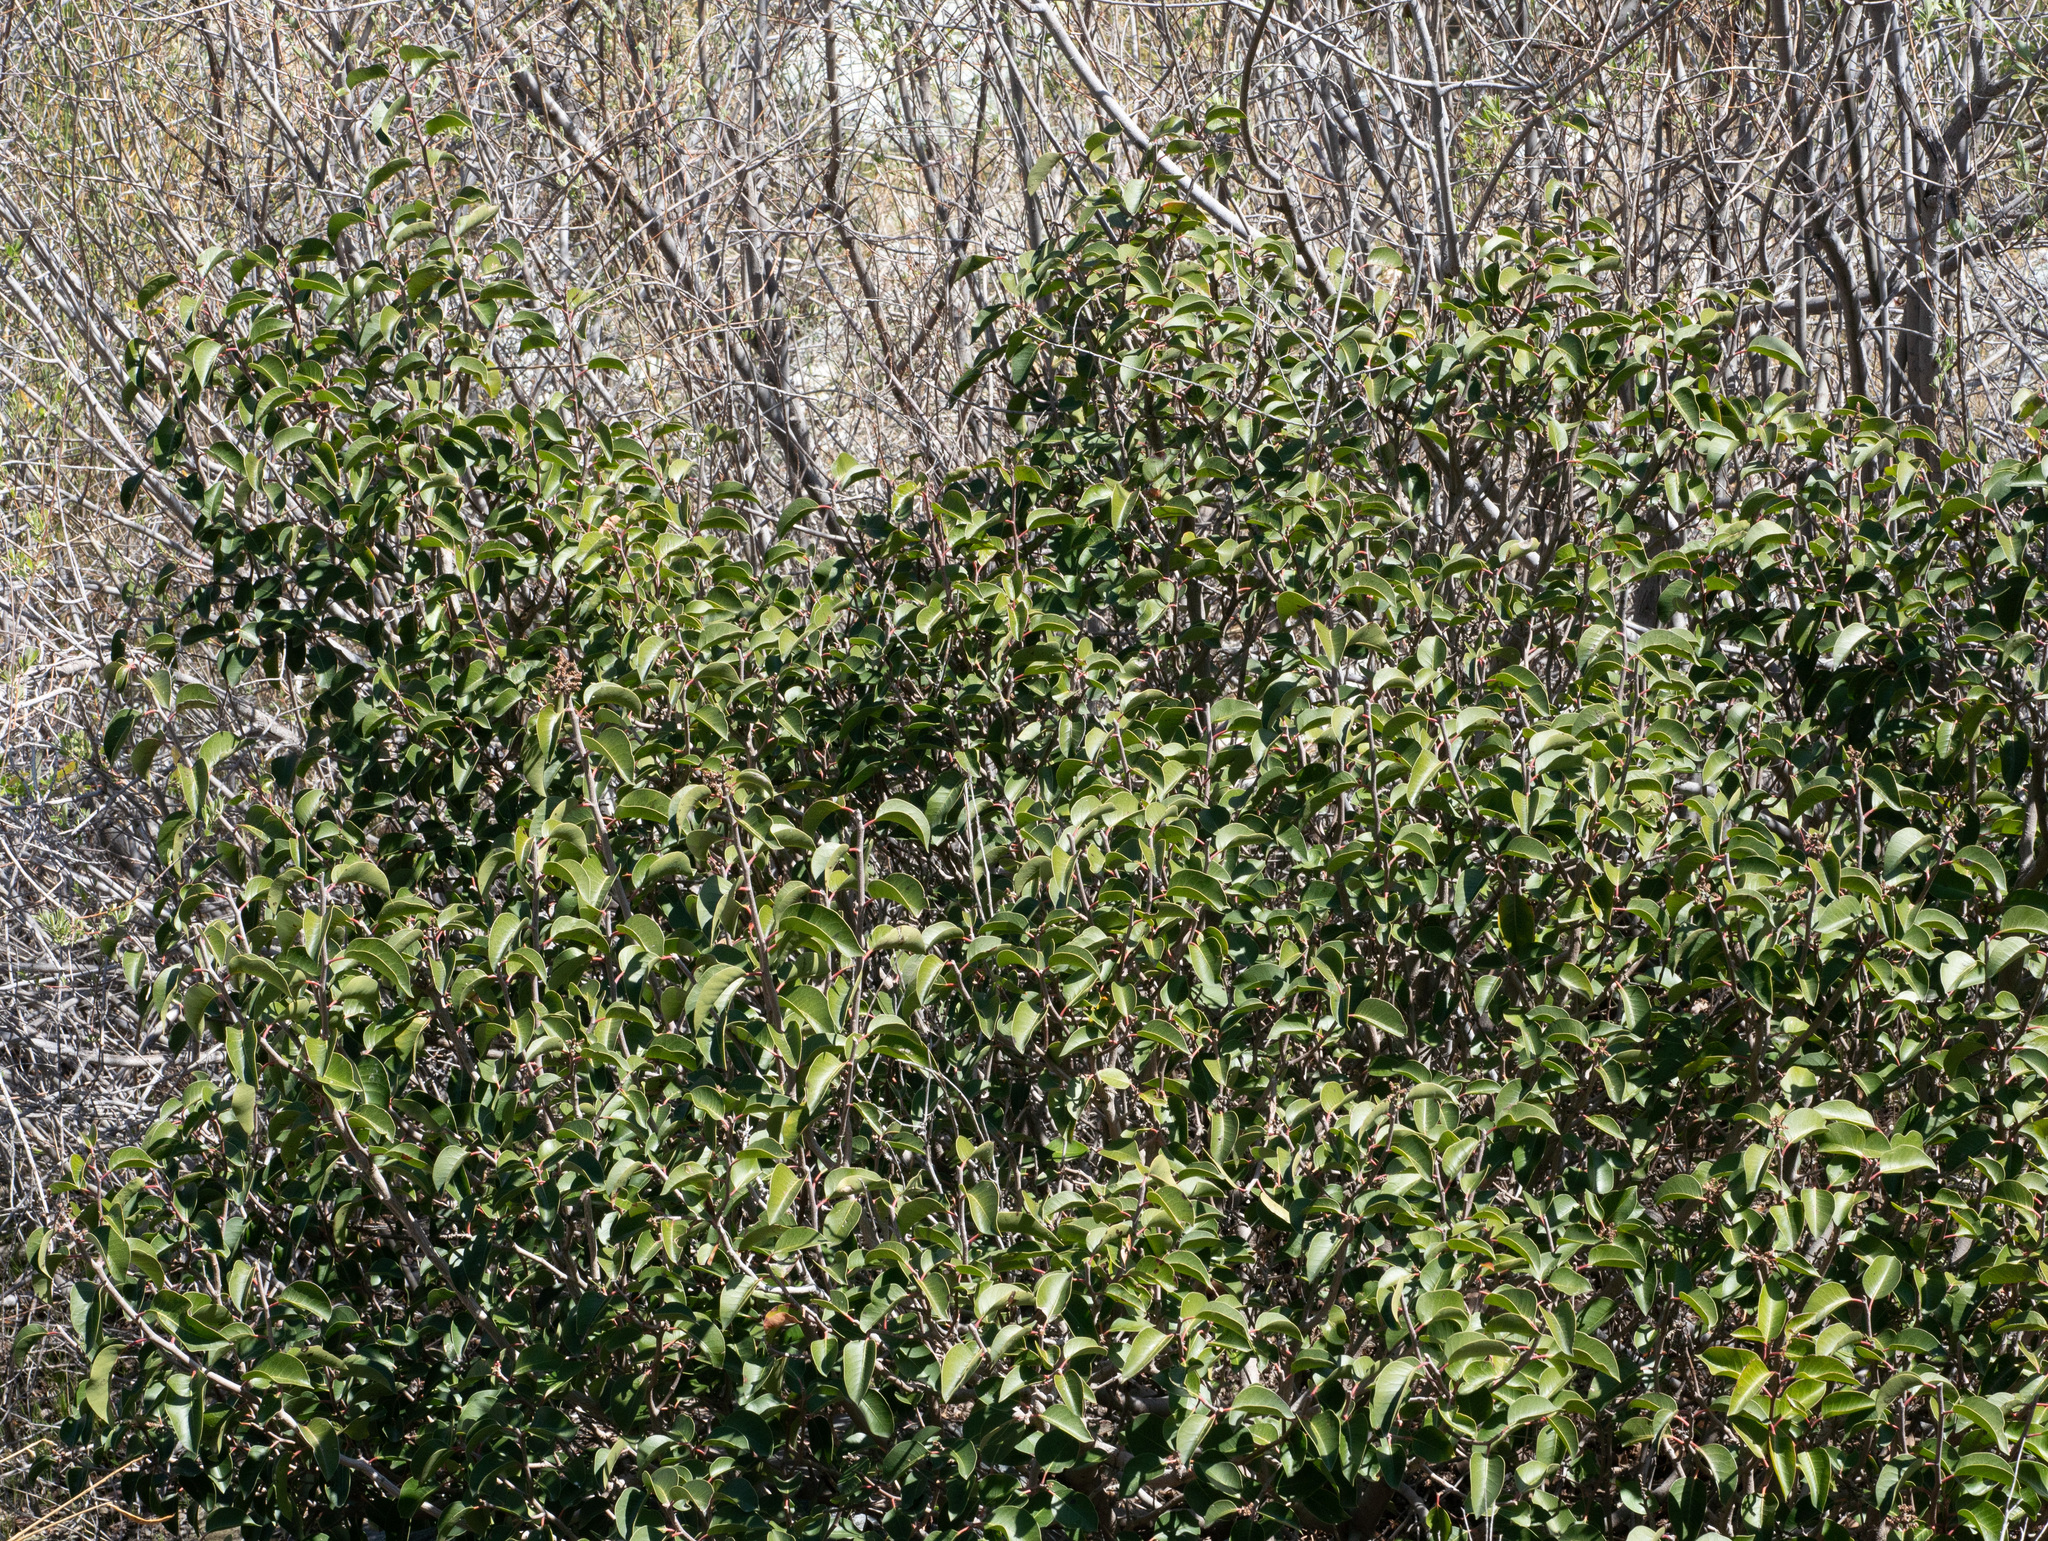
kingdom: Plantae
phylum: Tracheophyta
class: Magnoliopsida
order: Sapindales
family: Anacardiaceae
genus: Rhus
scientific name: Rhus ovata
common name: Sugar sumac
